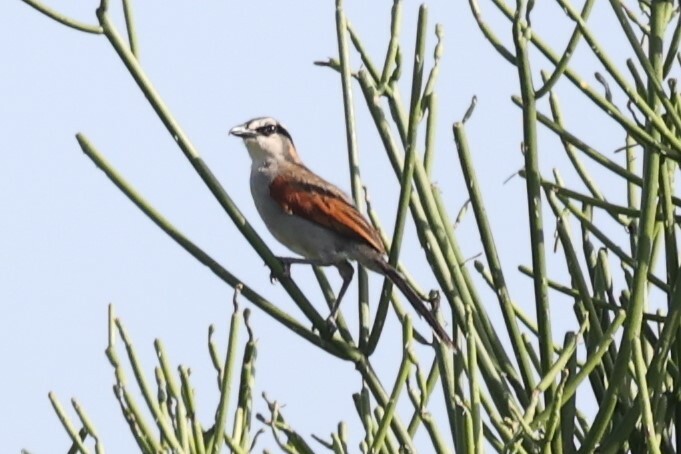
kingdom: Animalia
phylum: Chordata
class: Aves
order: Passeriformes
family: Malaconotidae
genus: Tchagra
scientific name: Tchagra senegalus
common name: Black-crowned tchagra
